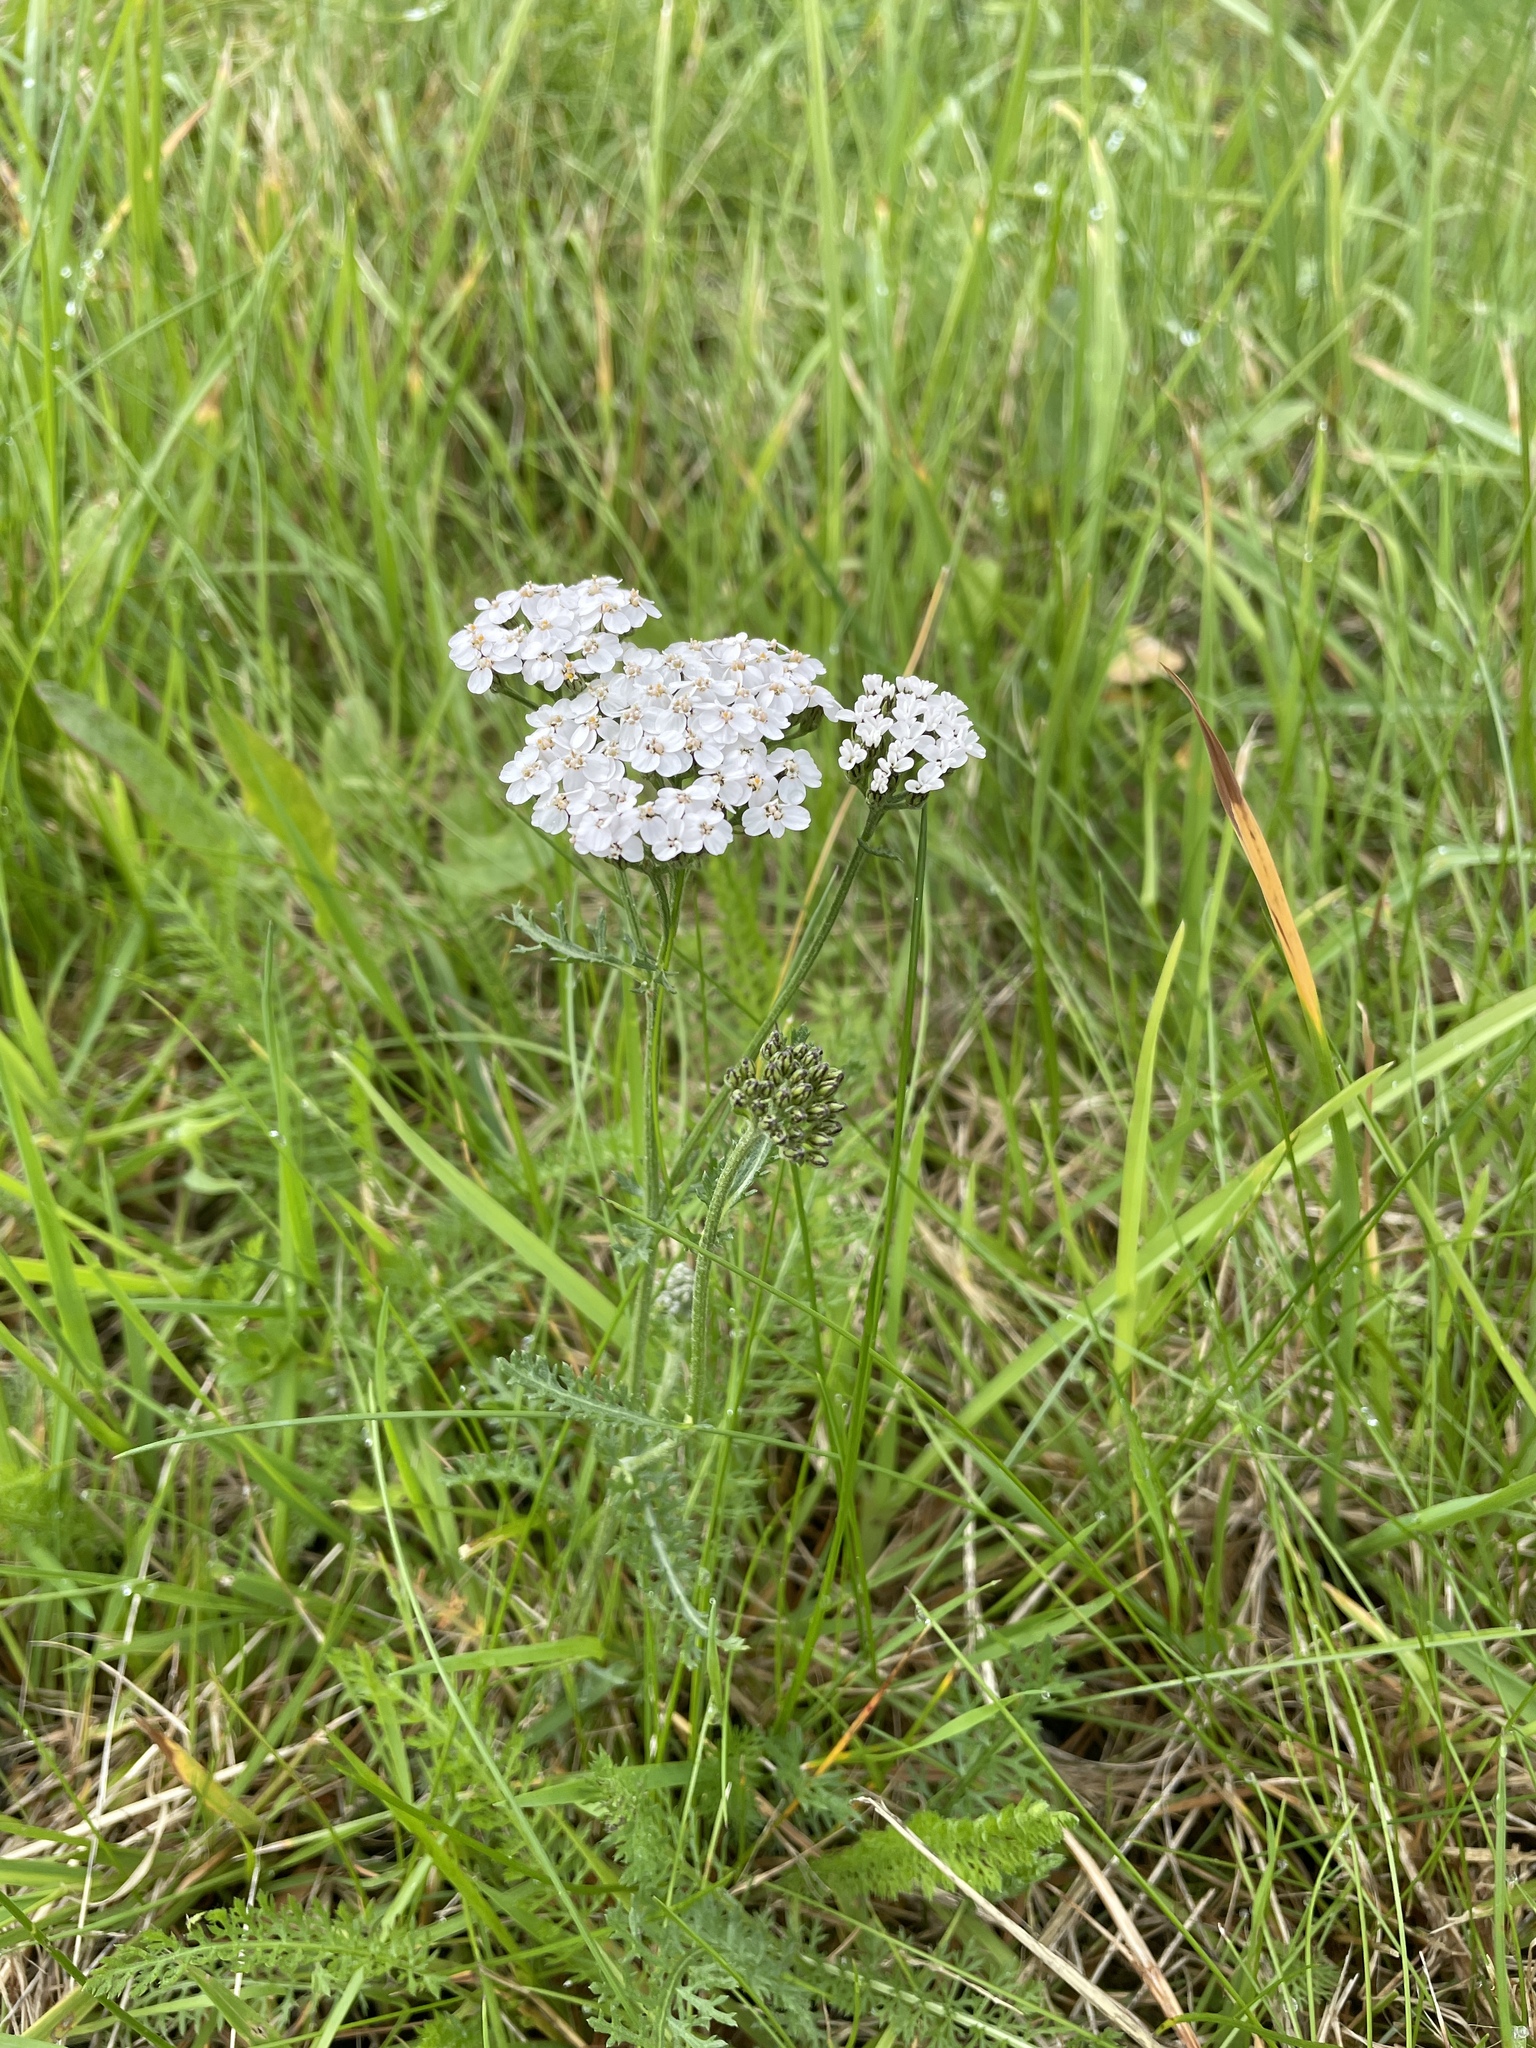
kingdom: Plantae
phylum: Tracheophyta
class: Magnoliopsida
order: Asterales
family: Asteraceae
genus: Achillea
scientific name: Achillea millefolium
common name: Yarrow
